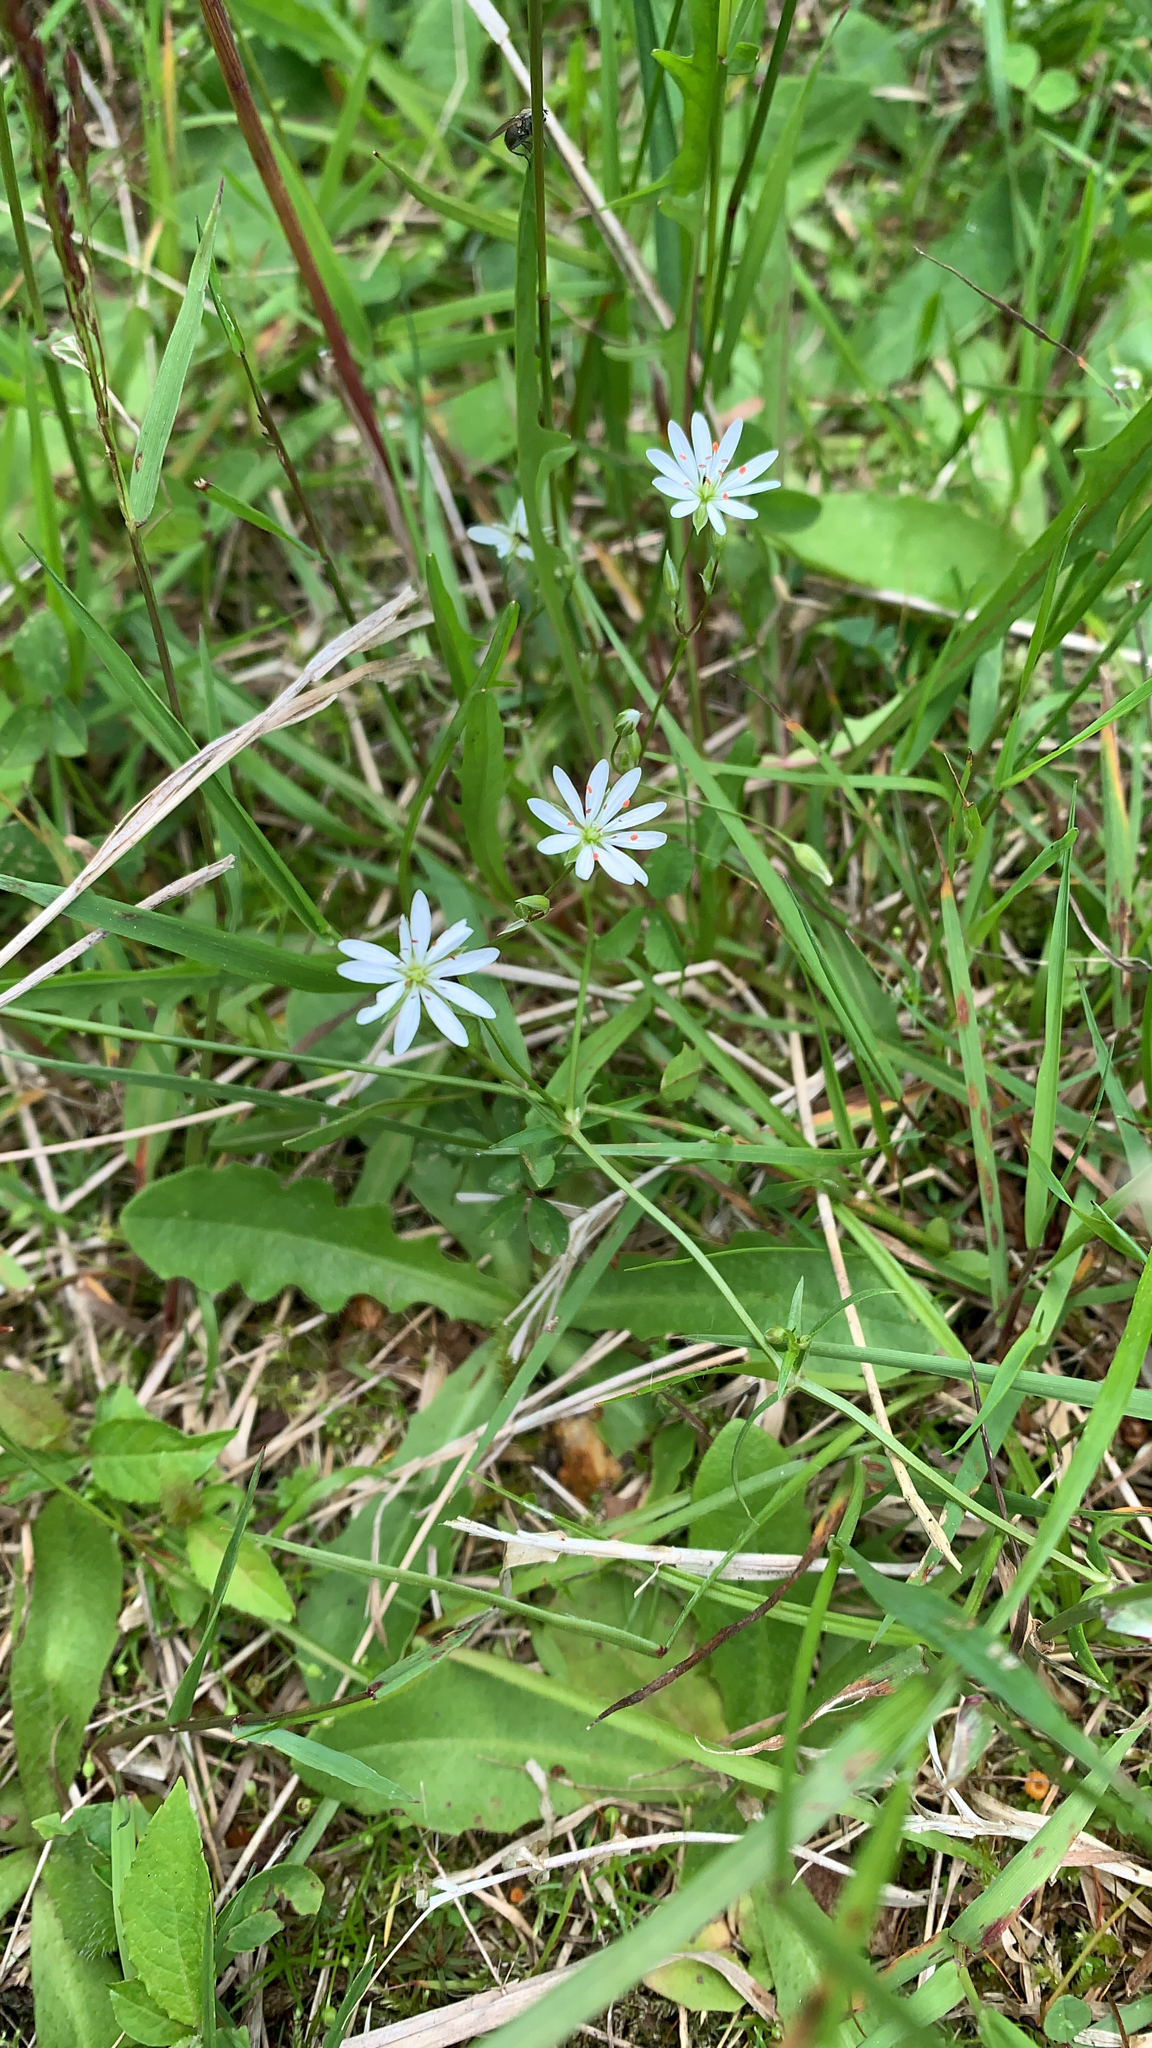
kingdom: Plantae
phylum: Tracheophyta
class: Magnoliopsida
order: Caryophyllales
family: Caryophyllaceae
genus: Stellaria
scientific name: Stellaria graminea
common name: Grass-like starwort
